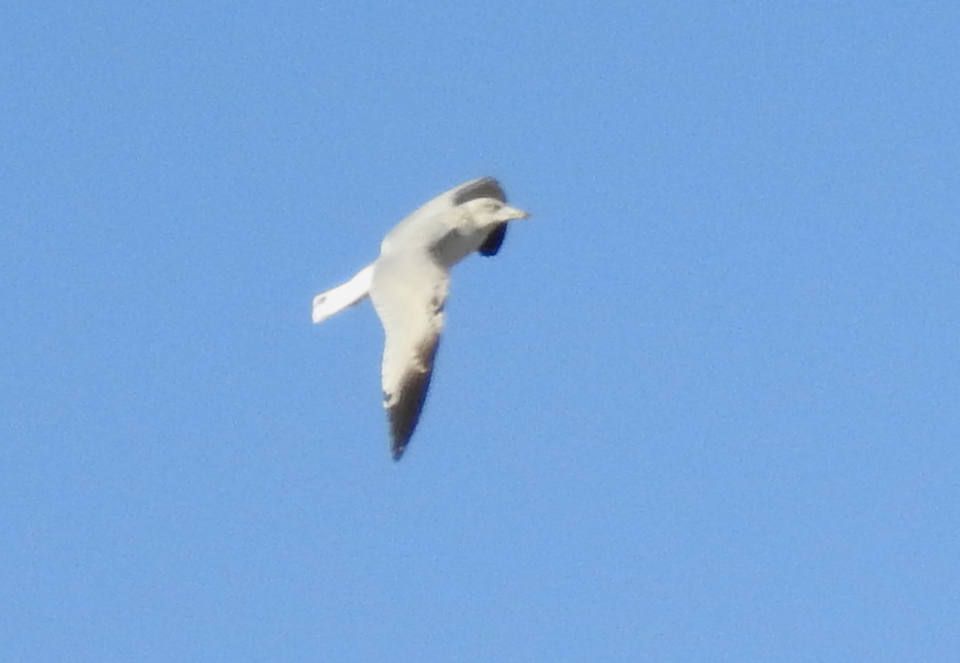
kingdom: Animalia
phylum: Chordata
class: Aves
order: Charadriiformes
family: Laridae
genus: Larus
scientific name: Larus argentatus
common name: Herring gull
